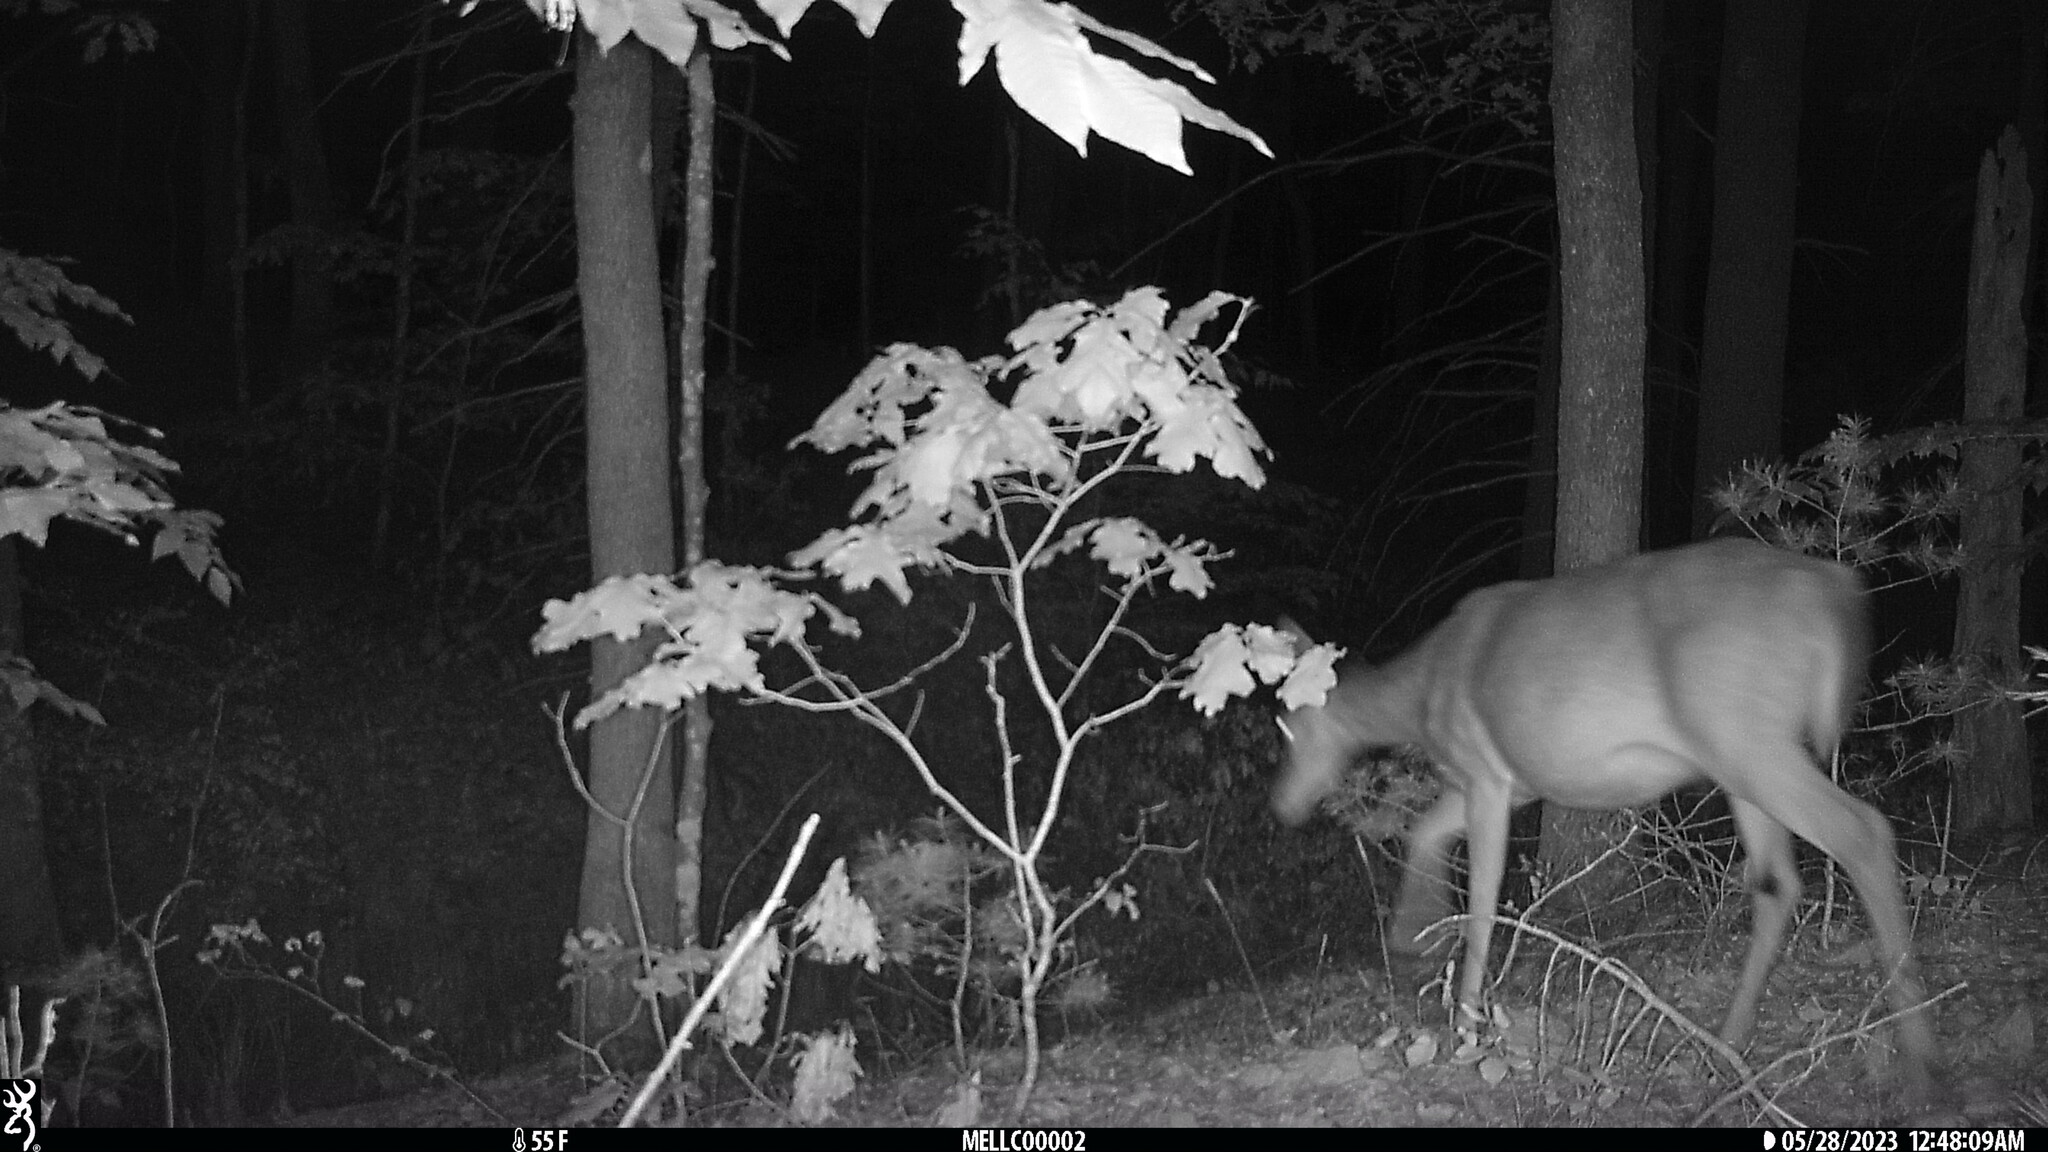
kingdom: Animalia
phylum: Chordata
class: Mammalia
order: Artiodactyla
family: Cervidae
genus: Odocoileus
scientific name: Odocoileus virginianus
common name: White-tailed deer
